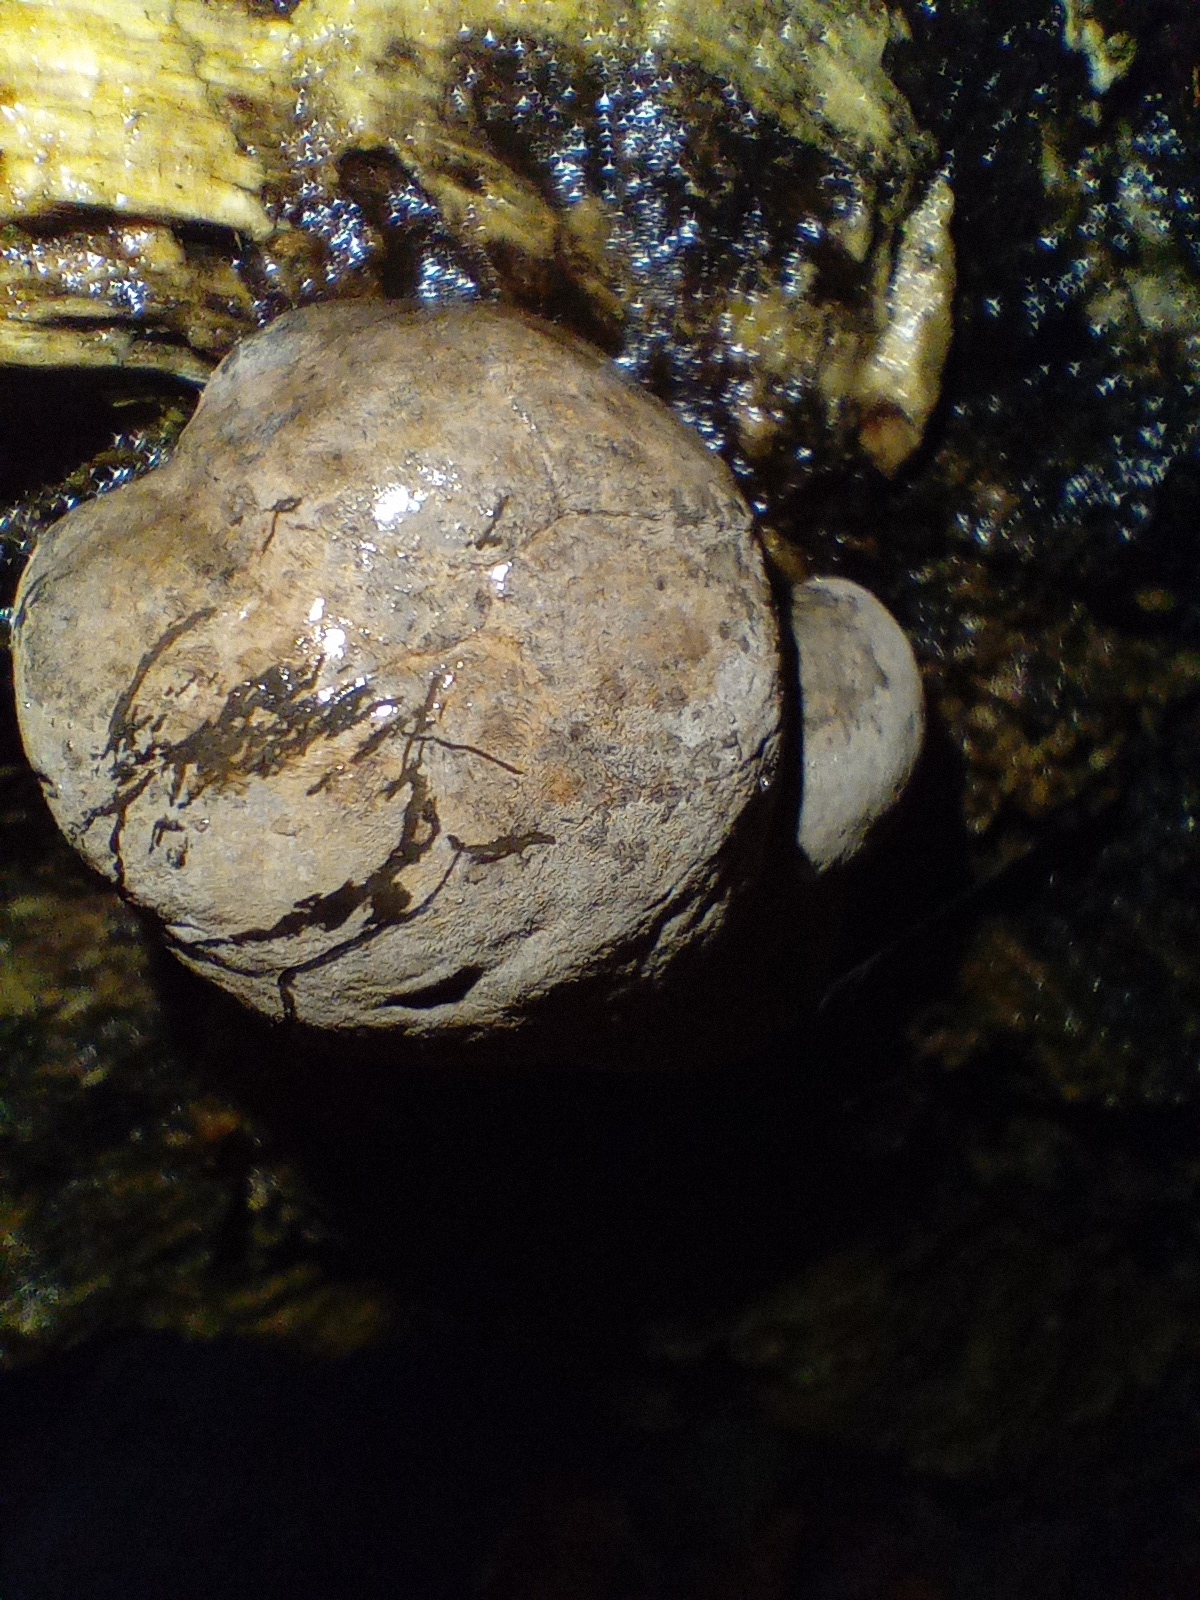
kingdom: Fungi
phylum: Ascomycota
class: Sordariomycetes
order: Xylariales
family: Hypoxylaceae
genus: Daldinia
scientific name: Daldinia concentrica
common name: Cramp balls
